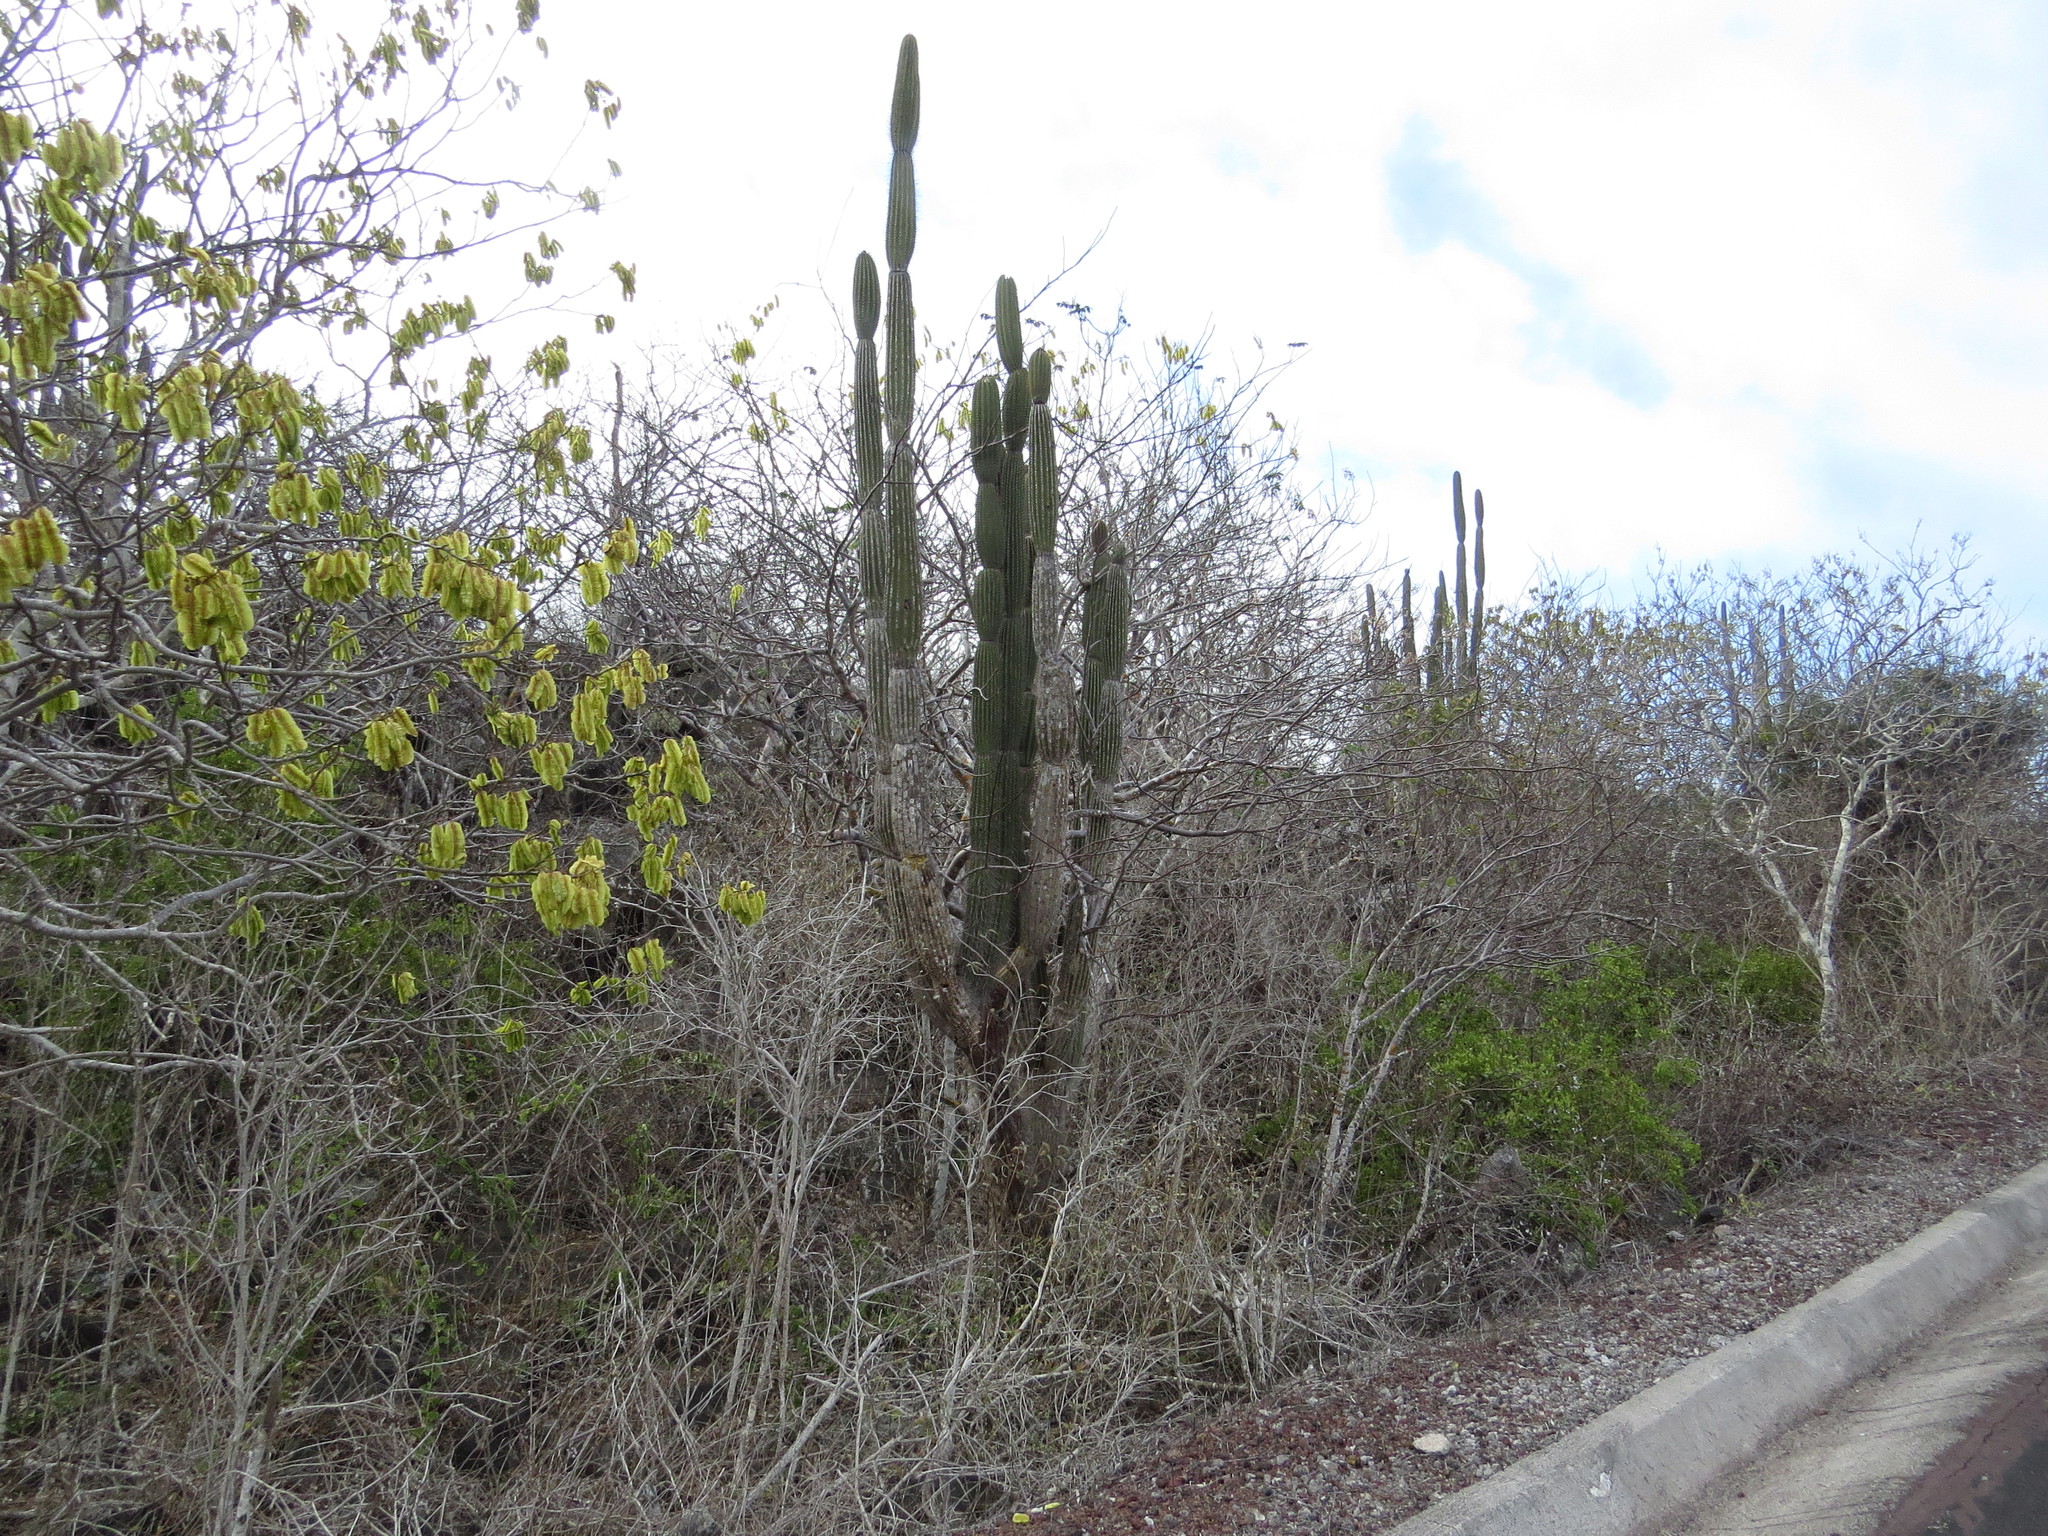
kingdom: Plantae
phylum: Tracheophyta
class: Magnoliopsida
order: Caryophyllales
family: Cactaceae
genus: Jasminocereus
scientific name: Jasminocereus thouarsii
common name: Candelabra cactus
